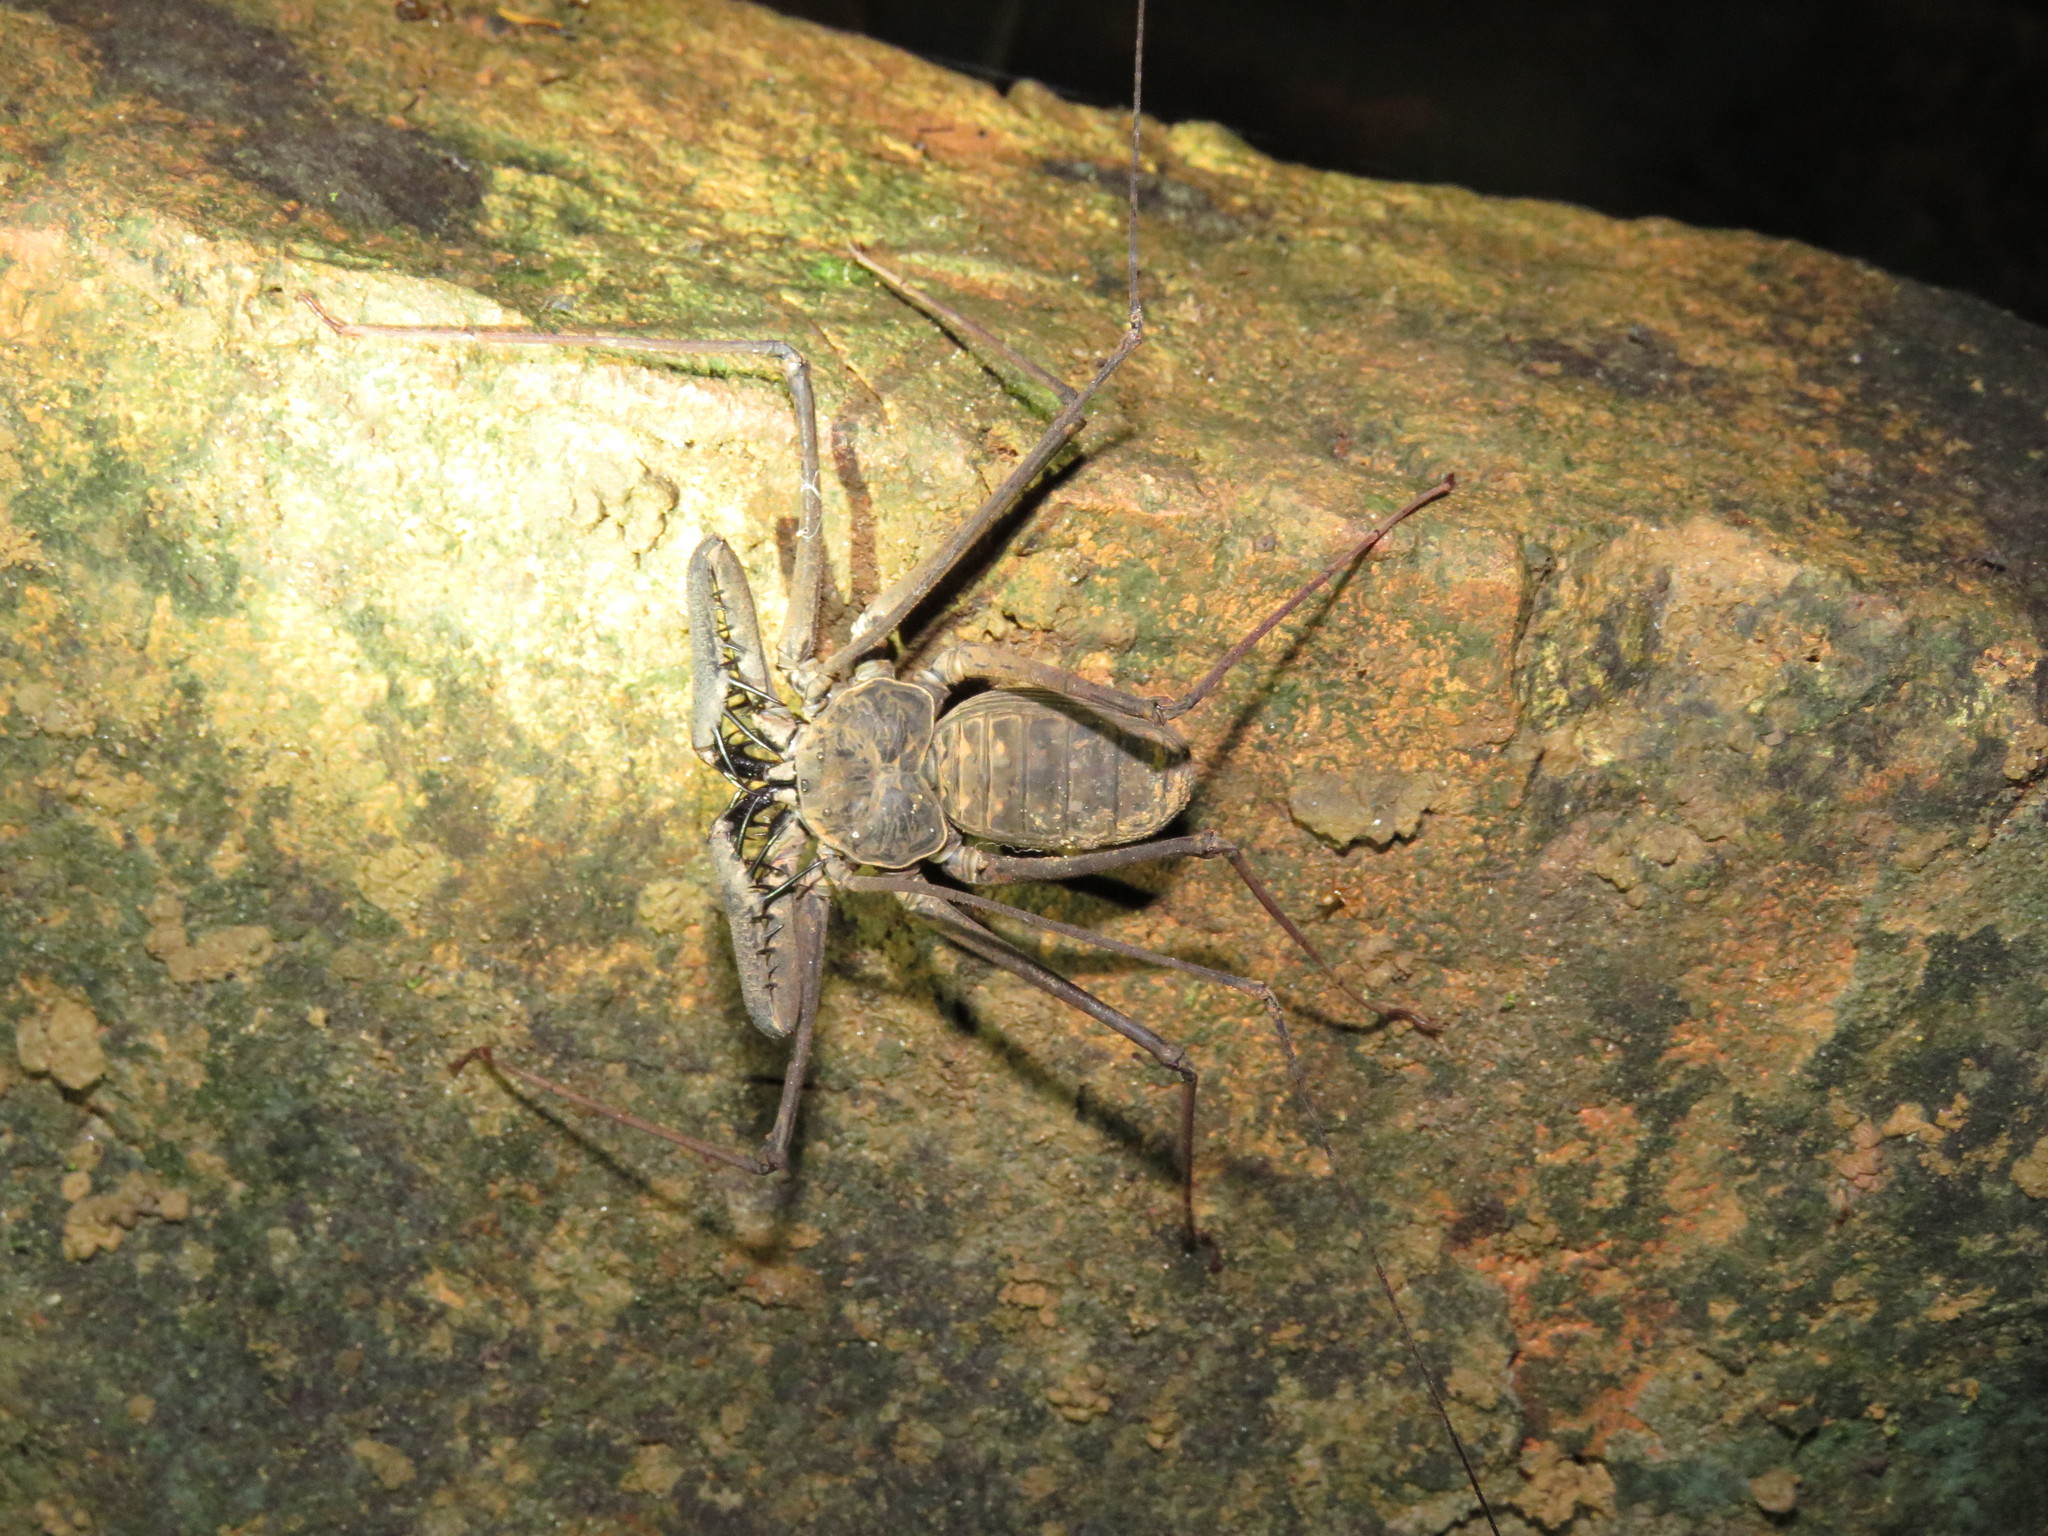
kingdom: Animalia
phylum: Arthropoda
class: Arachnida
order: Amblypygi
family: Phrynidae
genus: Heterophrynus
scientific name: Heterophrynus longicornis
